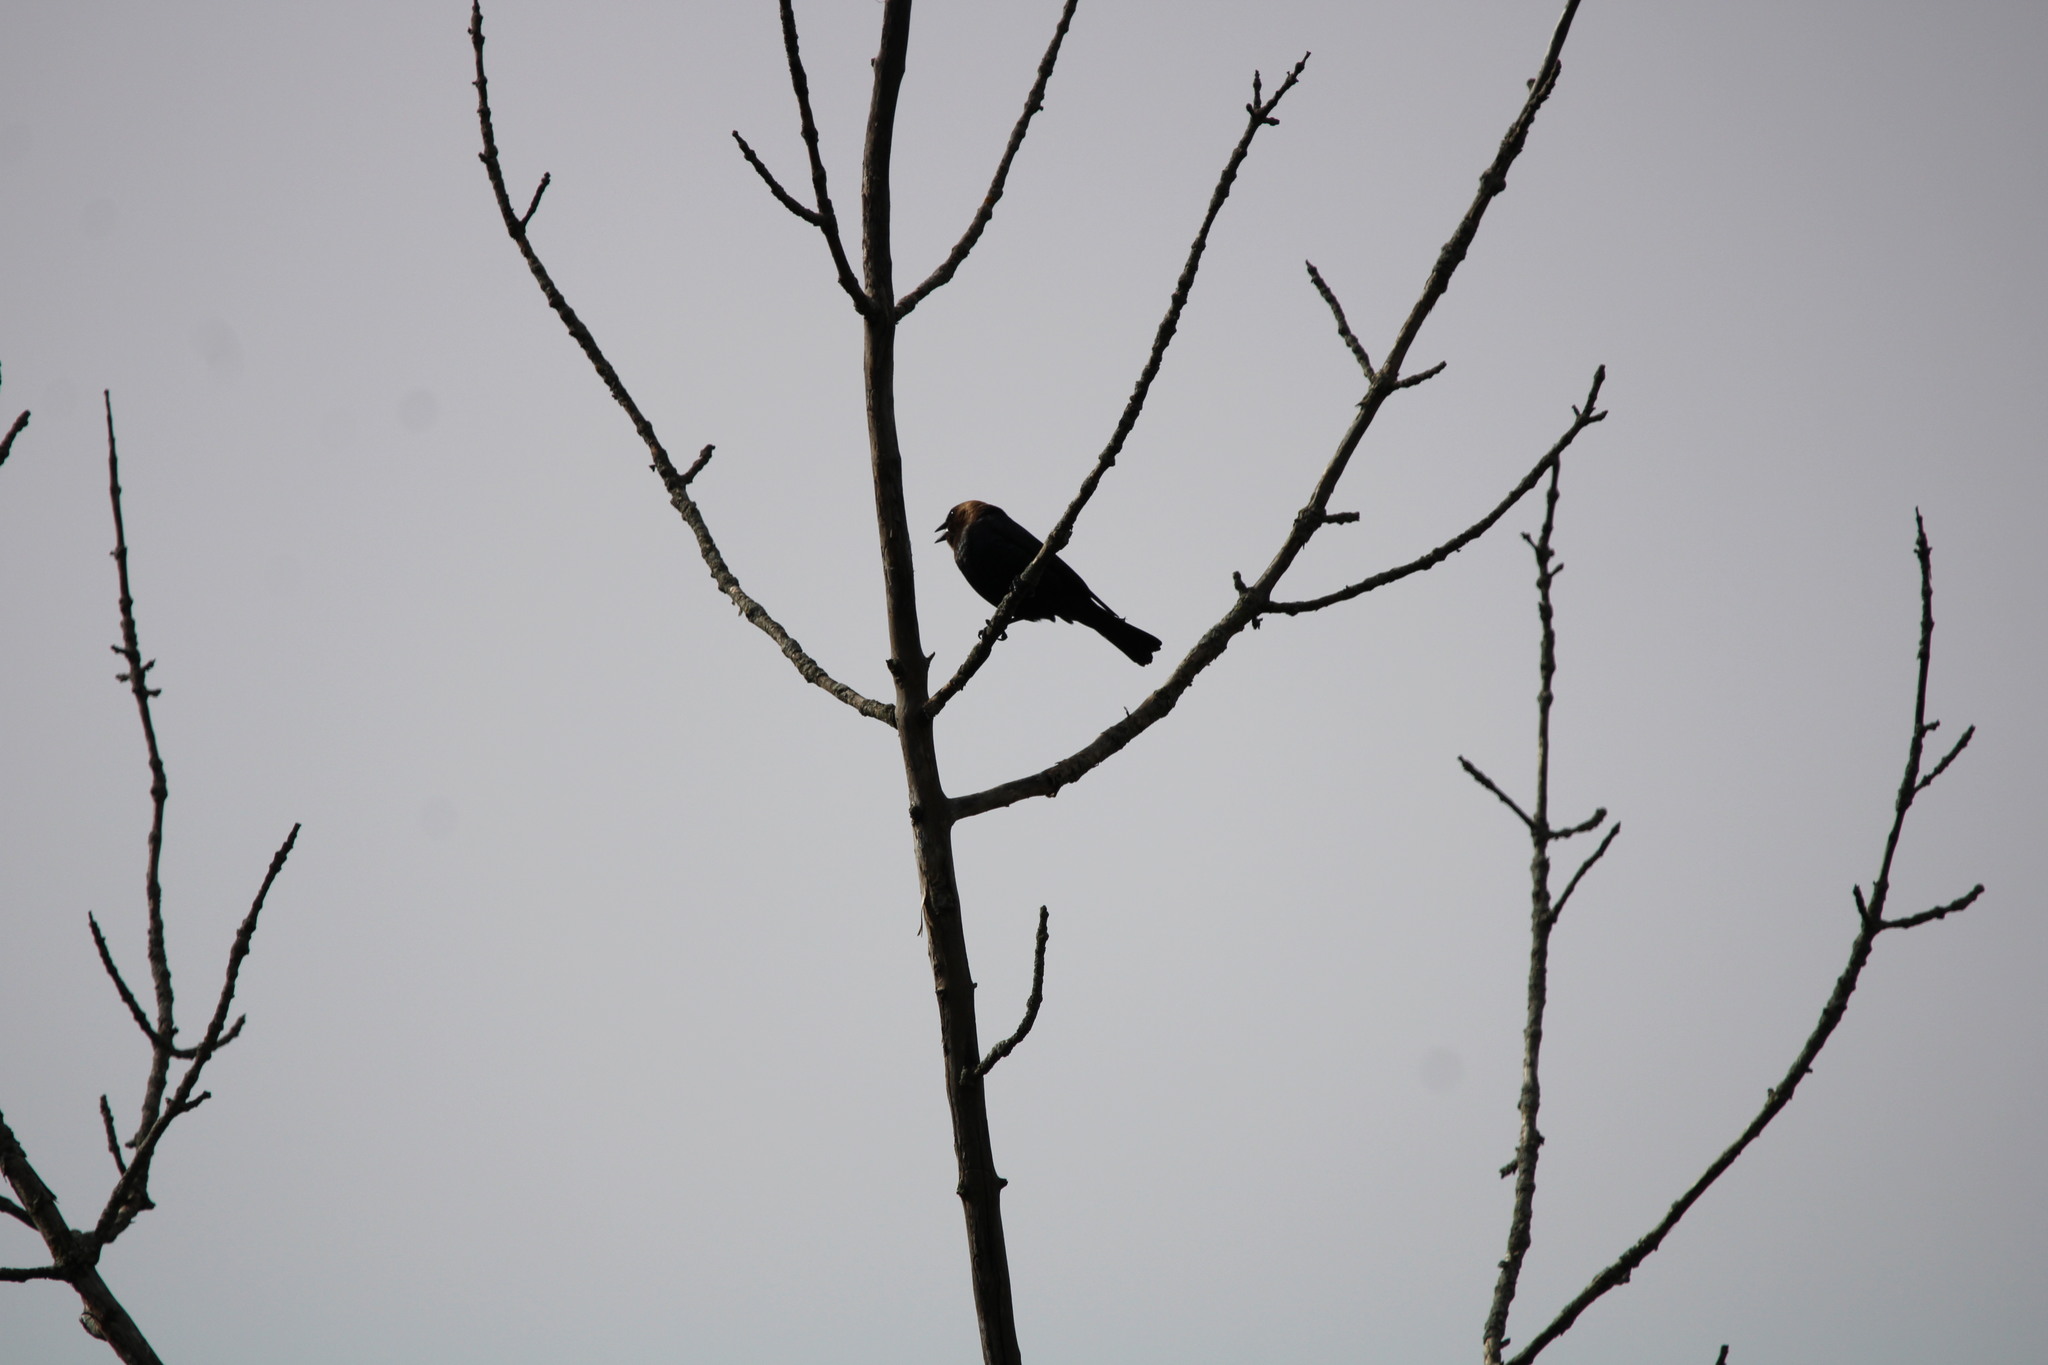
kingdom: Animalia
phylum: Chordata
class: Aves
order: Passeriformes
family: Icteridae
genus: Molothrus
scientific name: Molothrus ater
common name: Brown-headed cowbird
